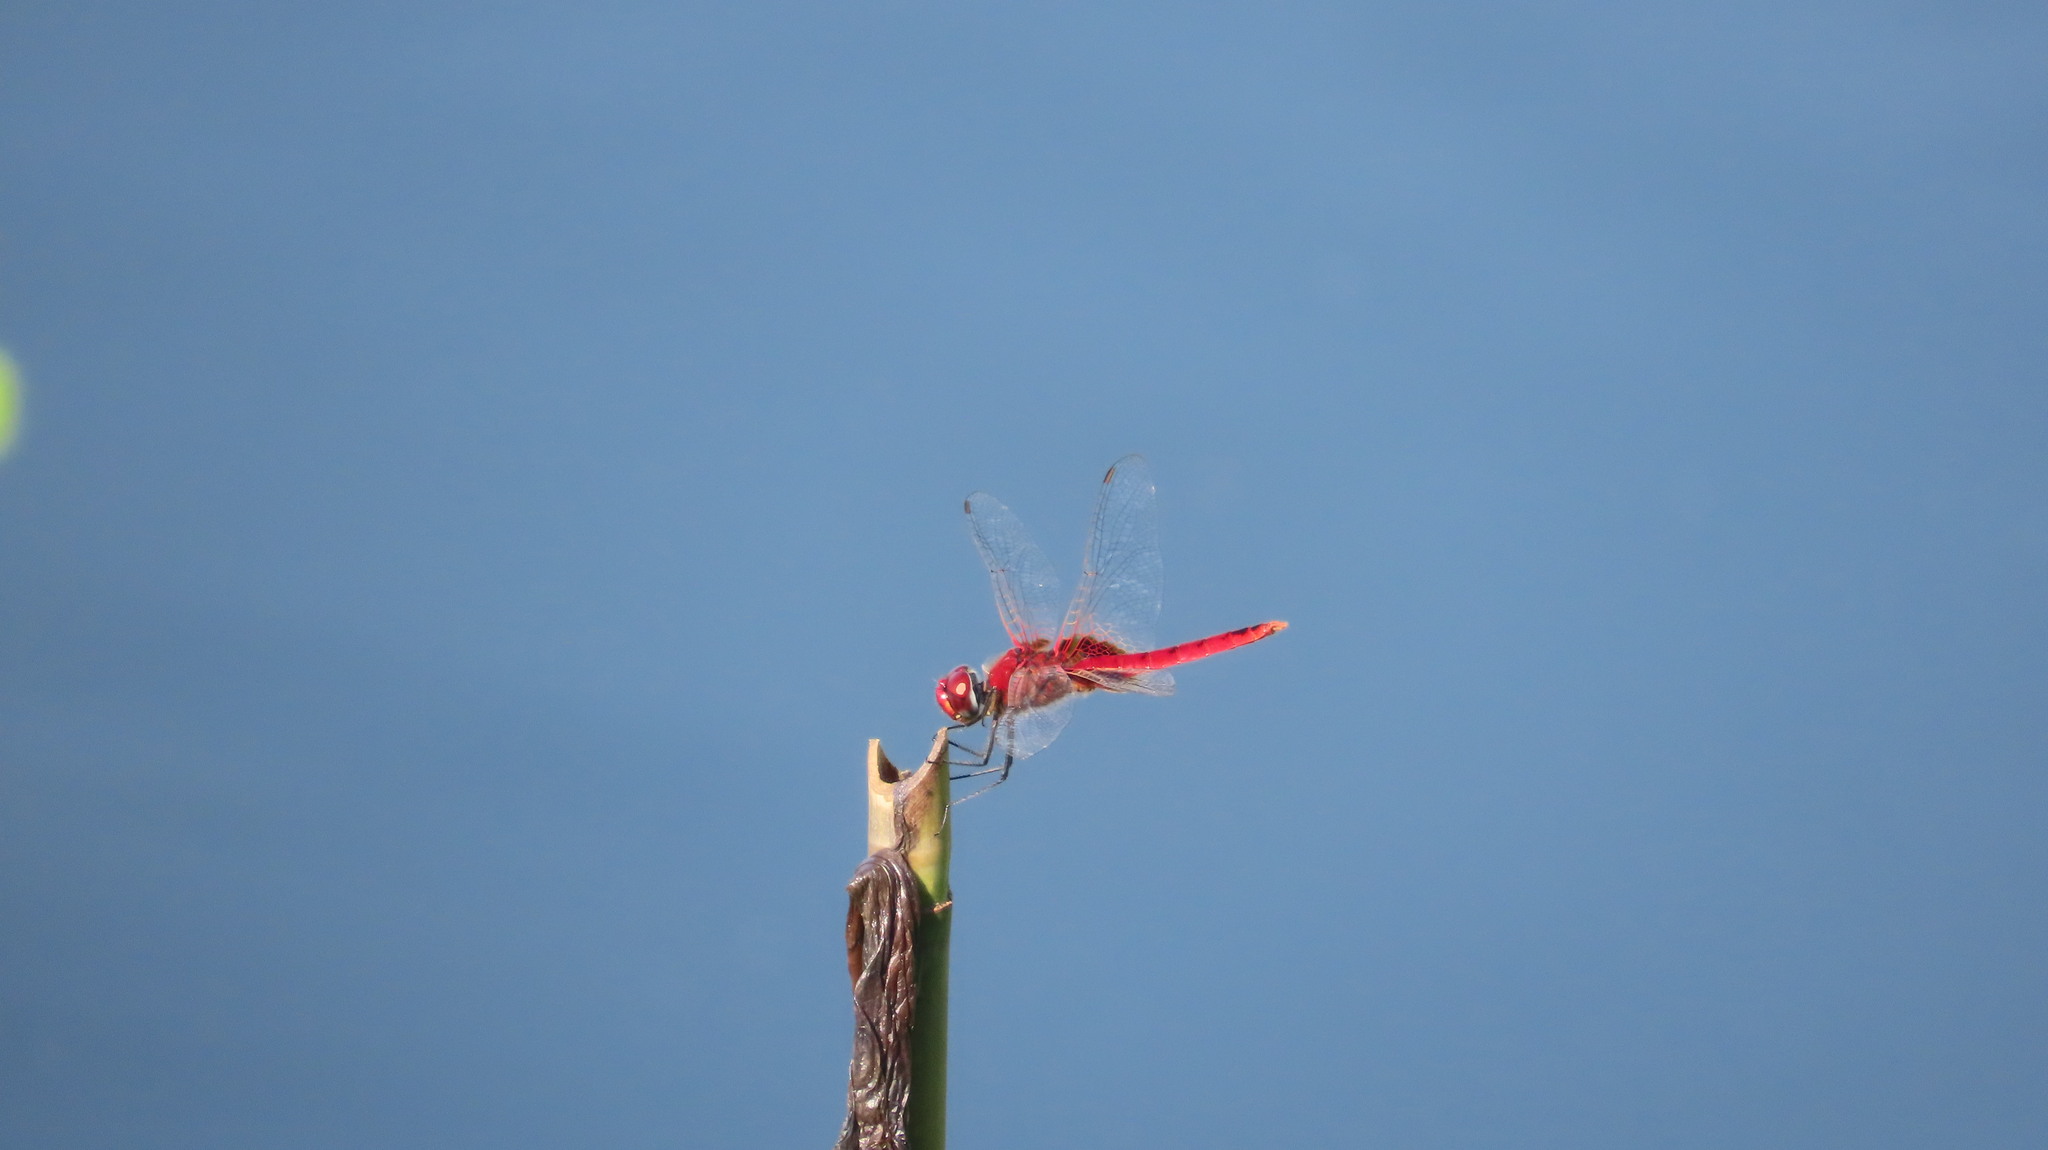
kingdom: Animalia
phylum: Arthropoda
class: Insecta
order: Odonata
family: Libellulidae
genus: Urothemis
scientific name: Urothemis signata
